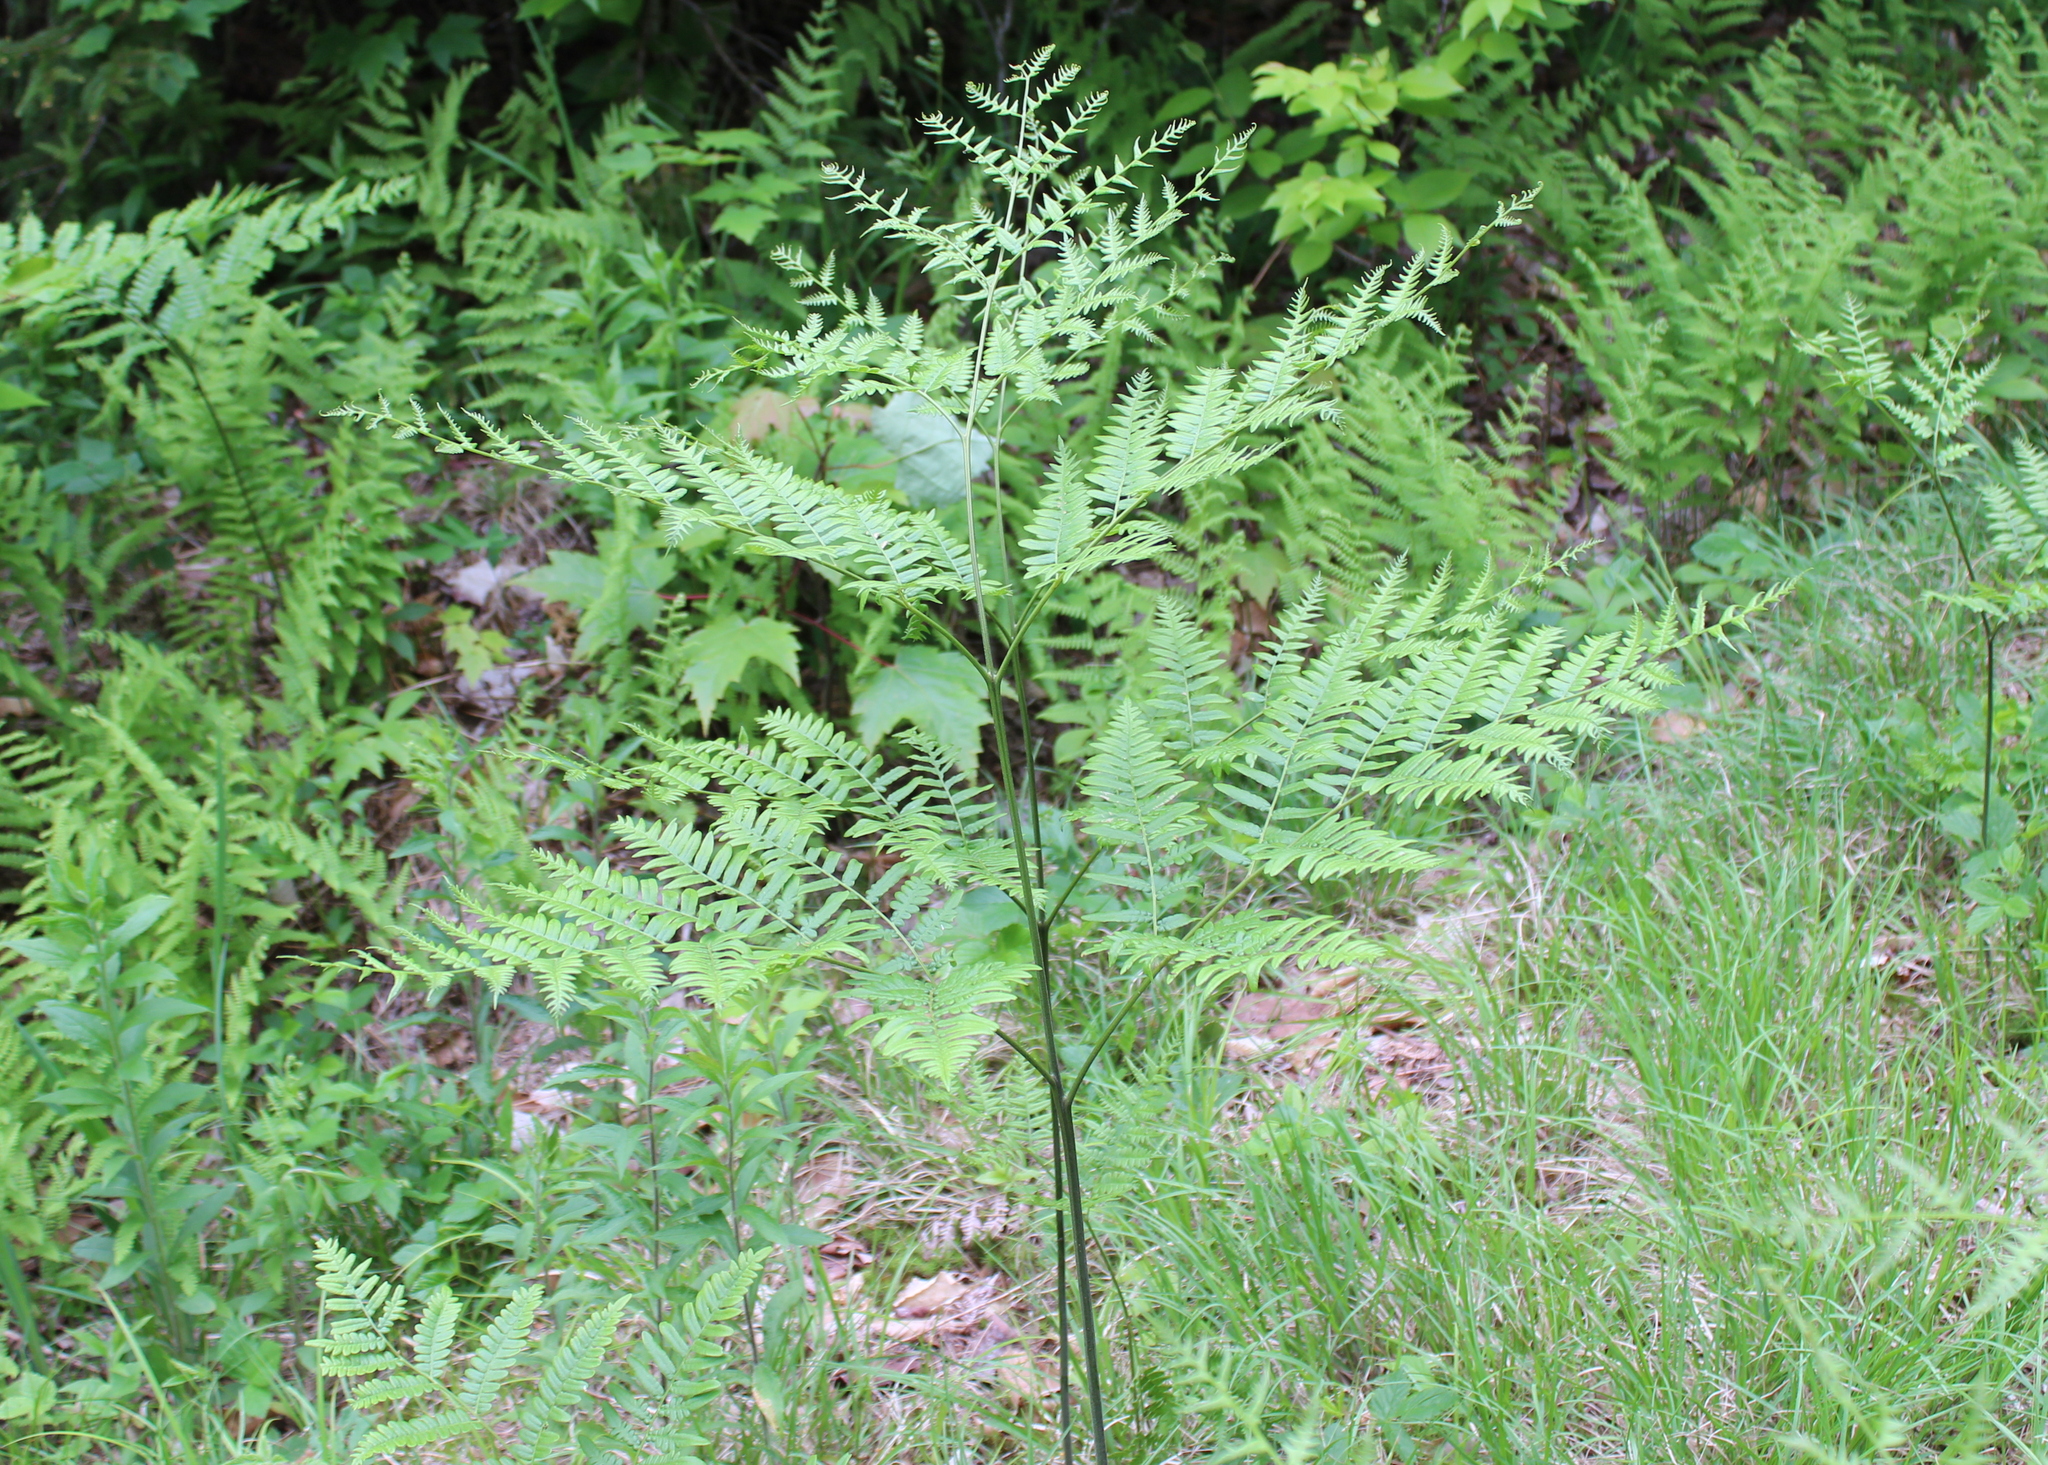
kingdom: Plantae
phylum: Tracheophyta
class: Polypodiopsida
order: Polypodiales
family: Dennstaedtiaceae
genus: Pteridium
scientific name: Pteridium aquilinum
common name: Bracken
